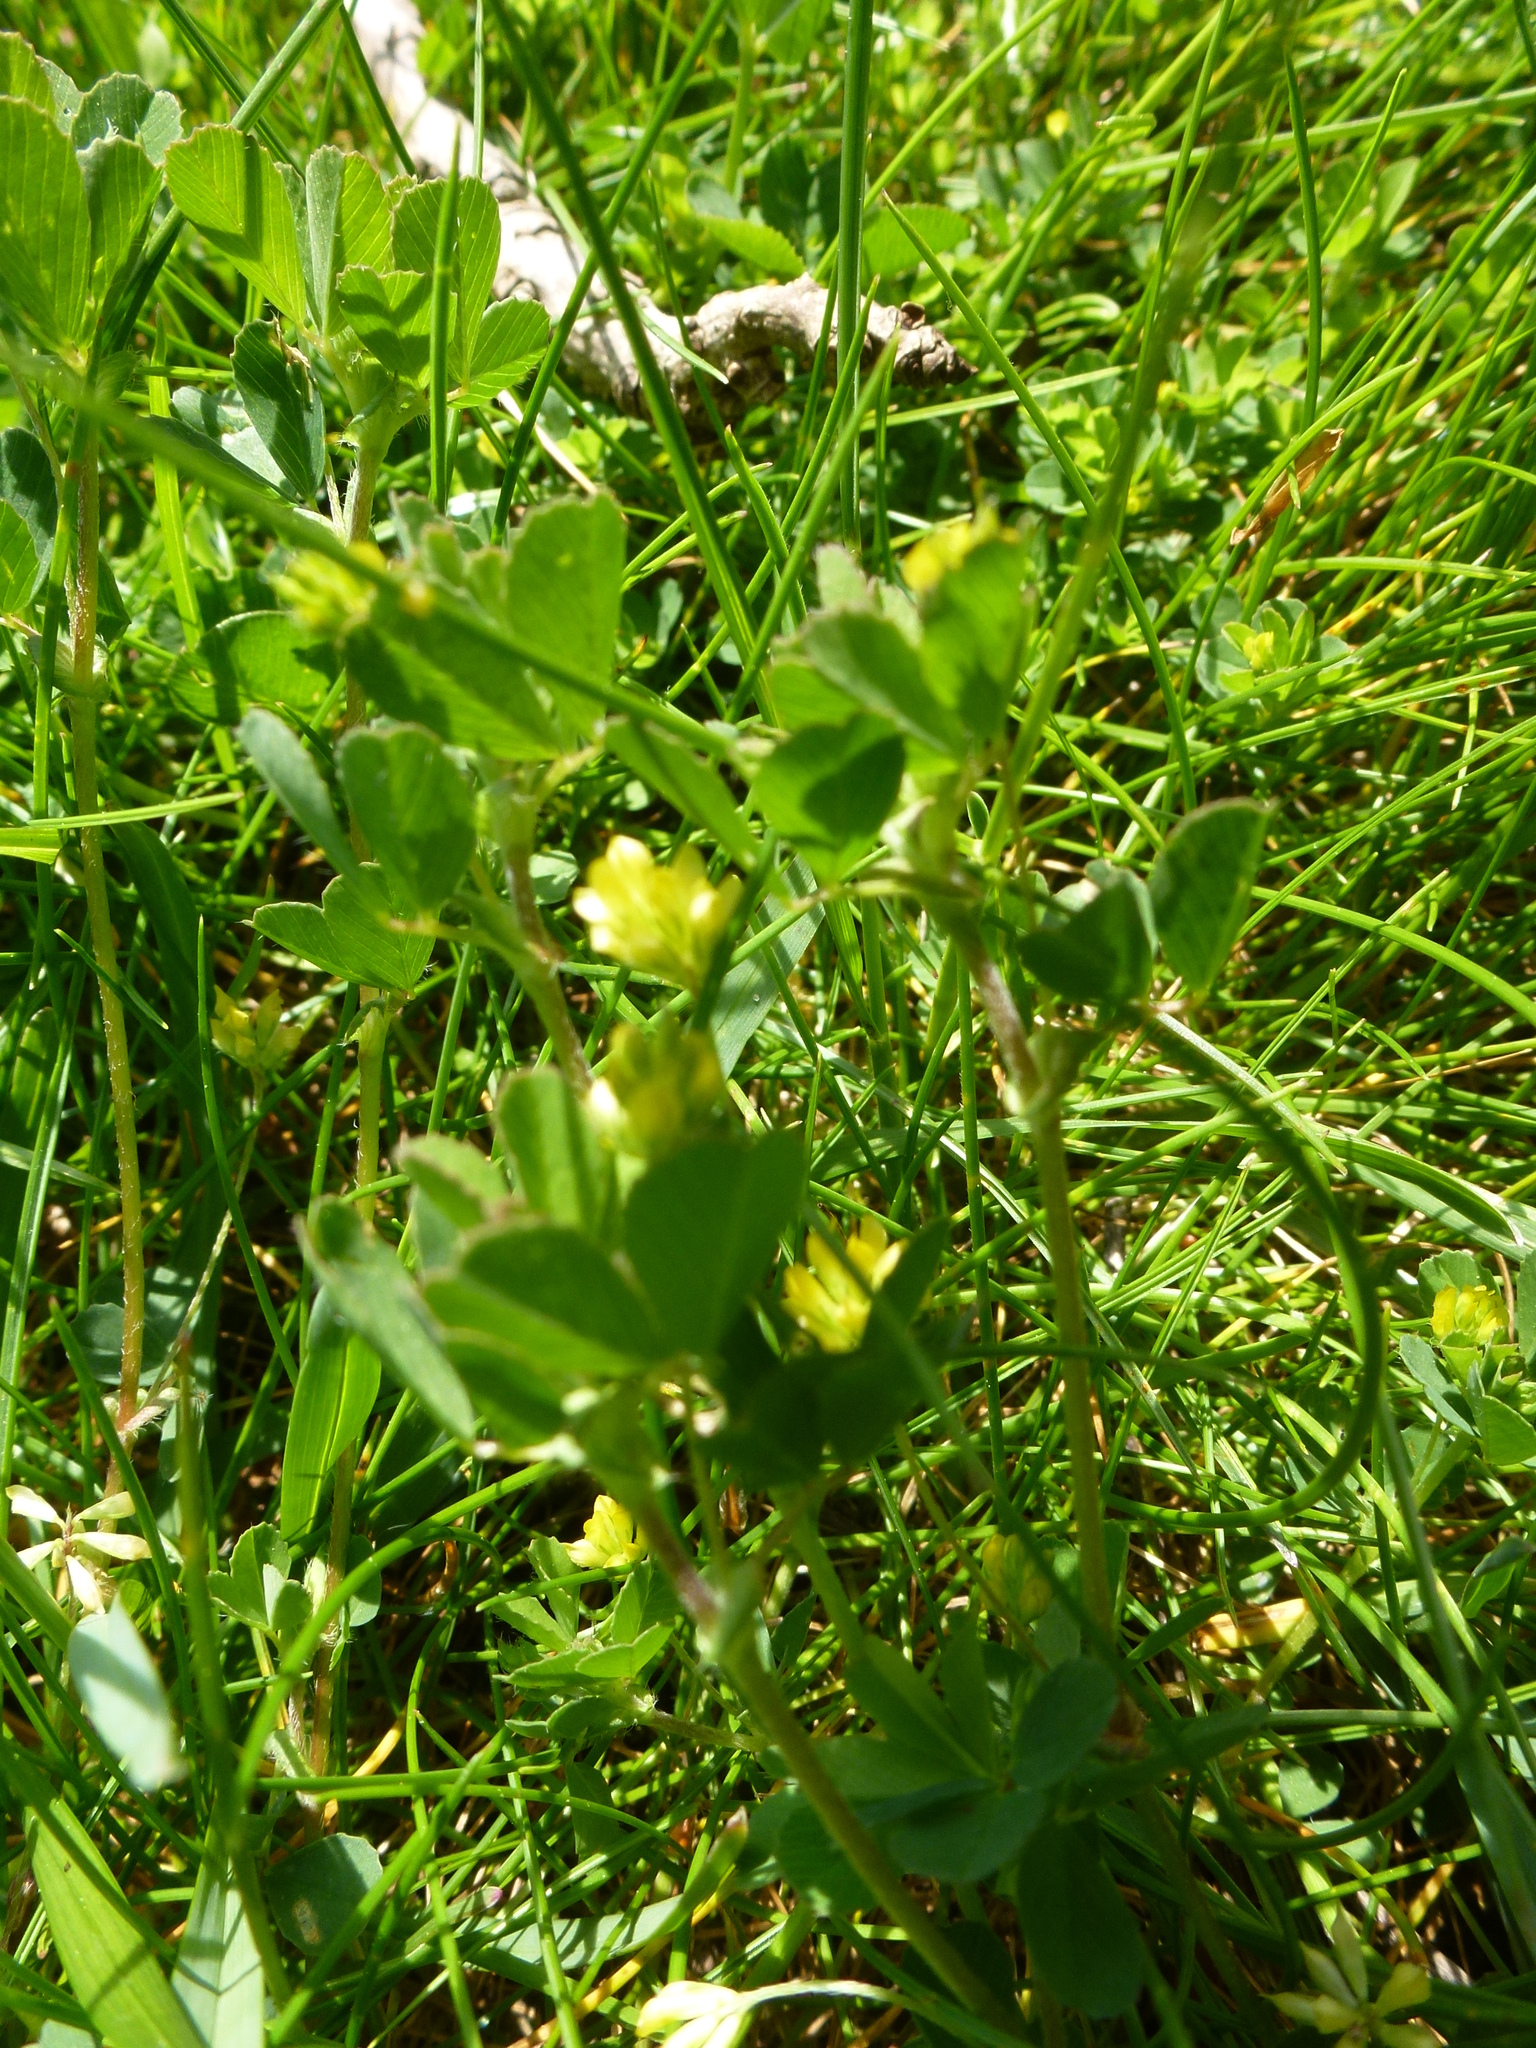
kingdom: Plantae
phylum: Tracheophyta
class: Magnoliopsida
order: Fabales
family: Fabaceae
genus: Trifolium
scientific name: Trifolium dubium
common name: Suckling clover
